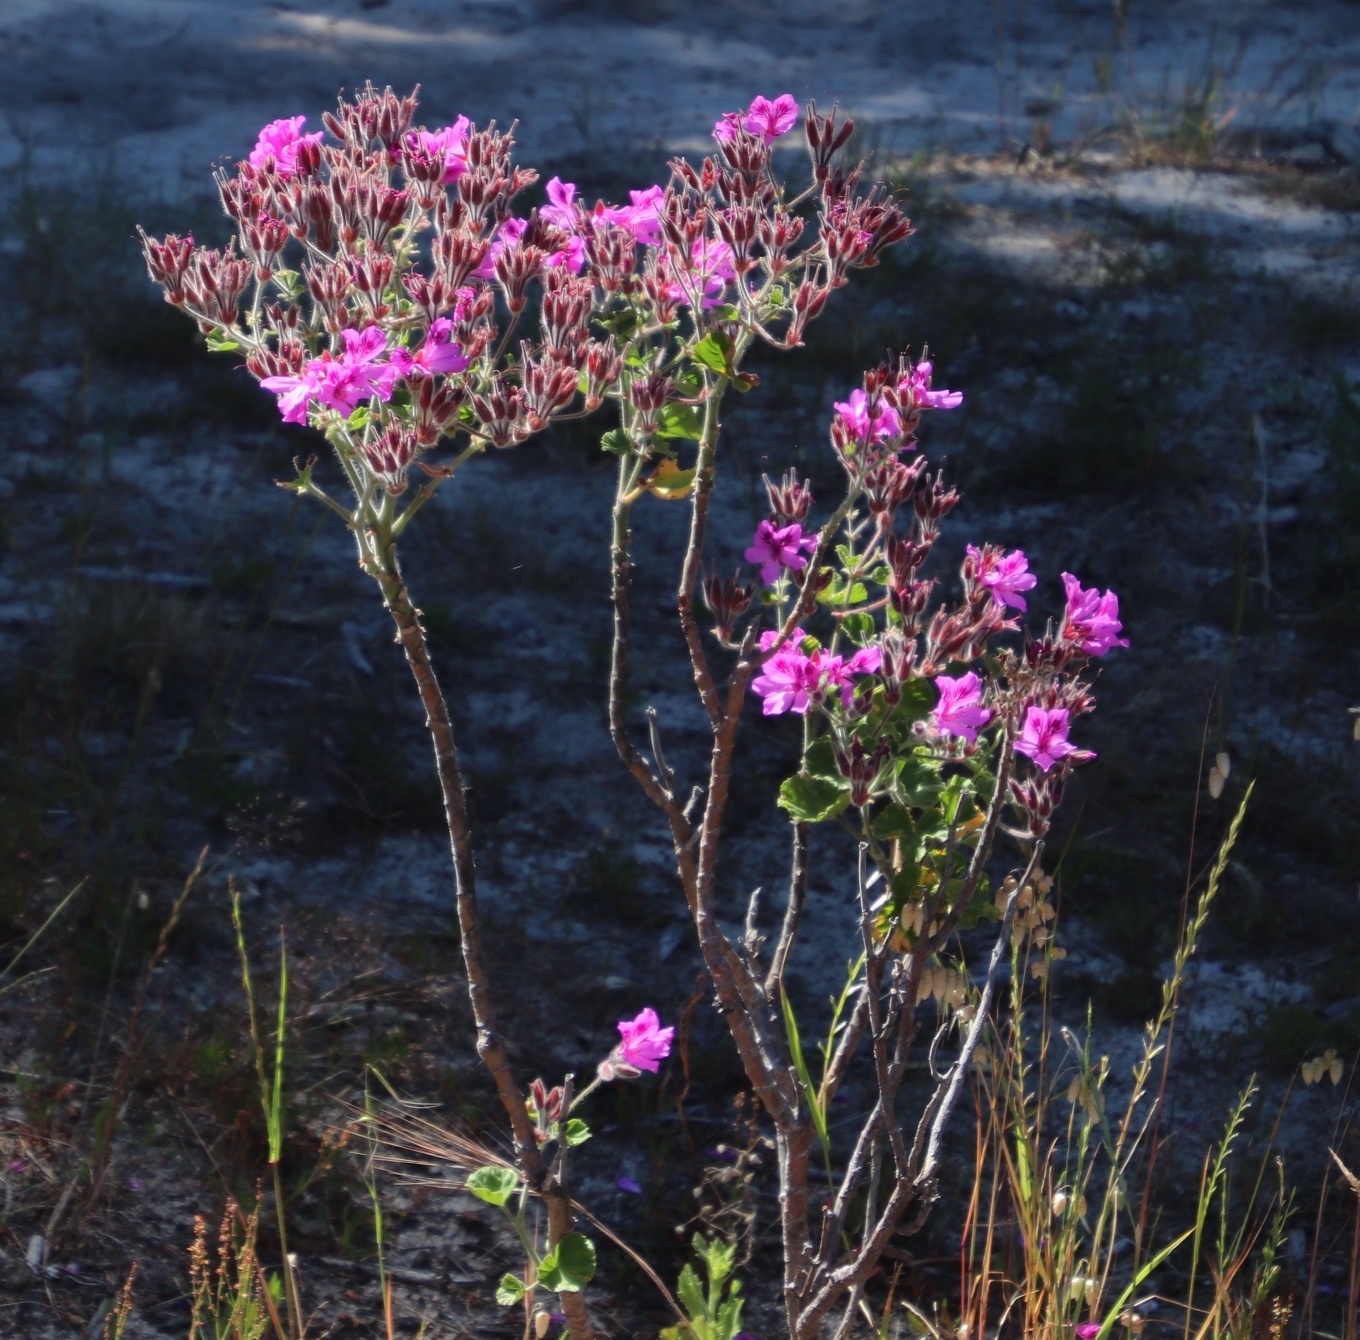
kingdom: Plantae
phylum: Tracheophyta
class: Magnoliopsida
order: Geraniales
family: Geraniaceae
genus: Pelargonium
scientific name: Pelargonium cucullatum
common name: Tree pelargonium
